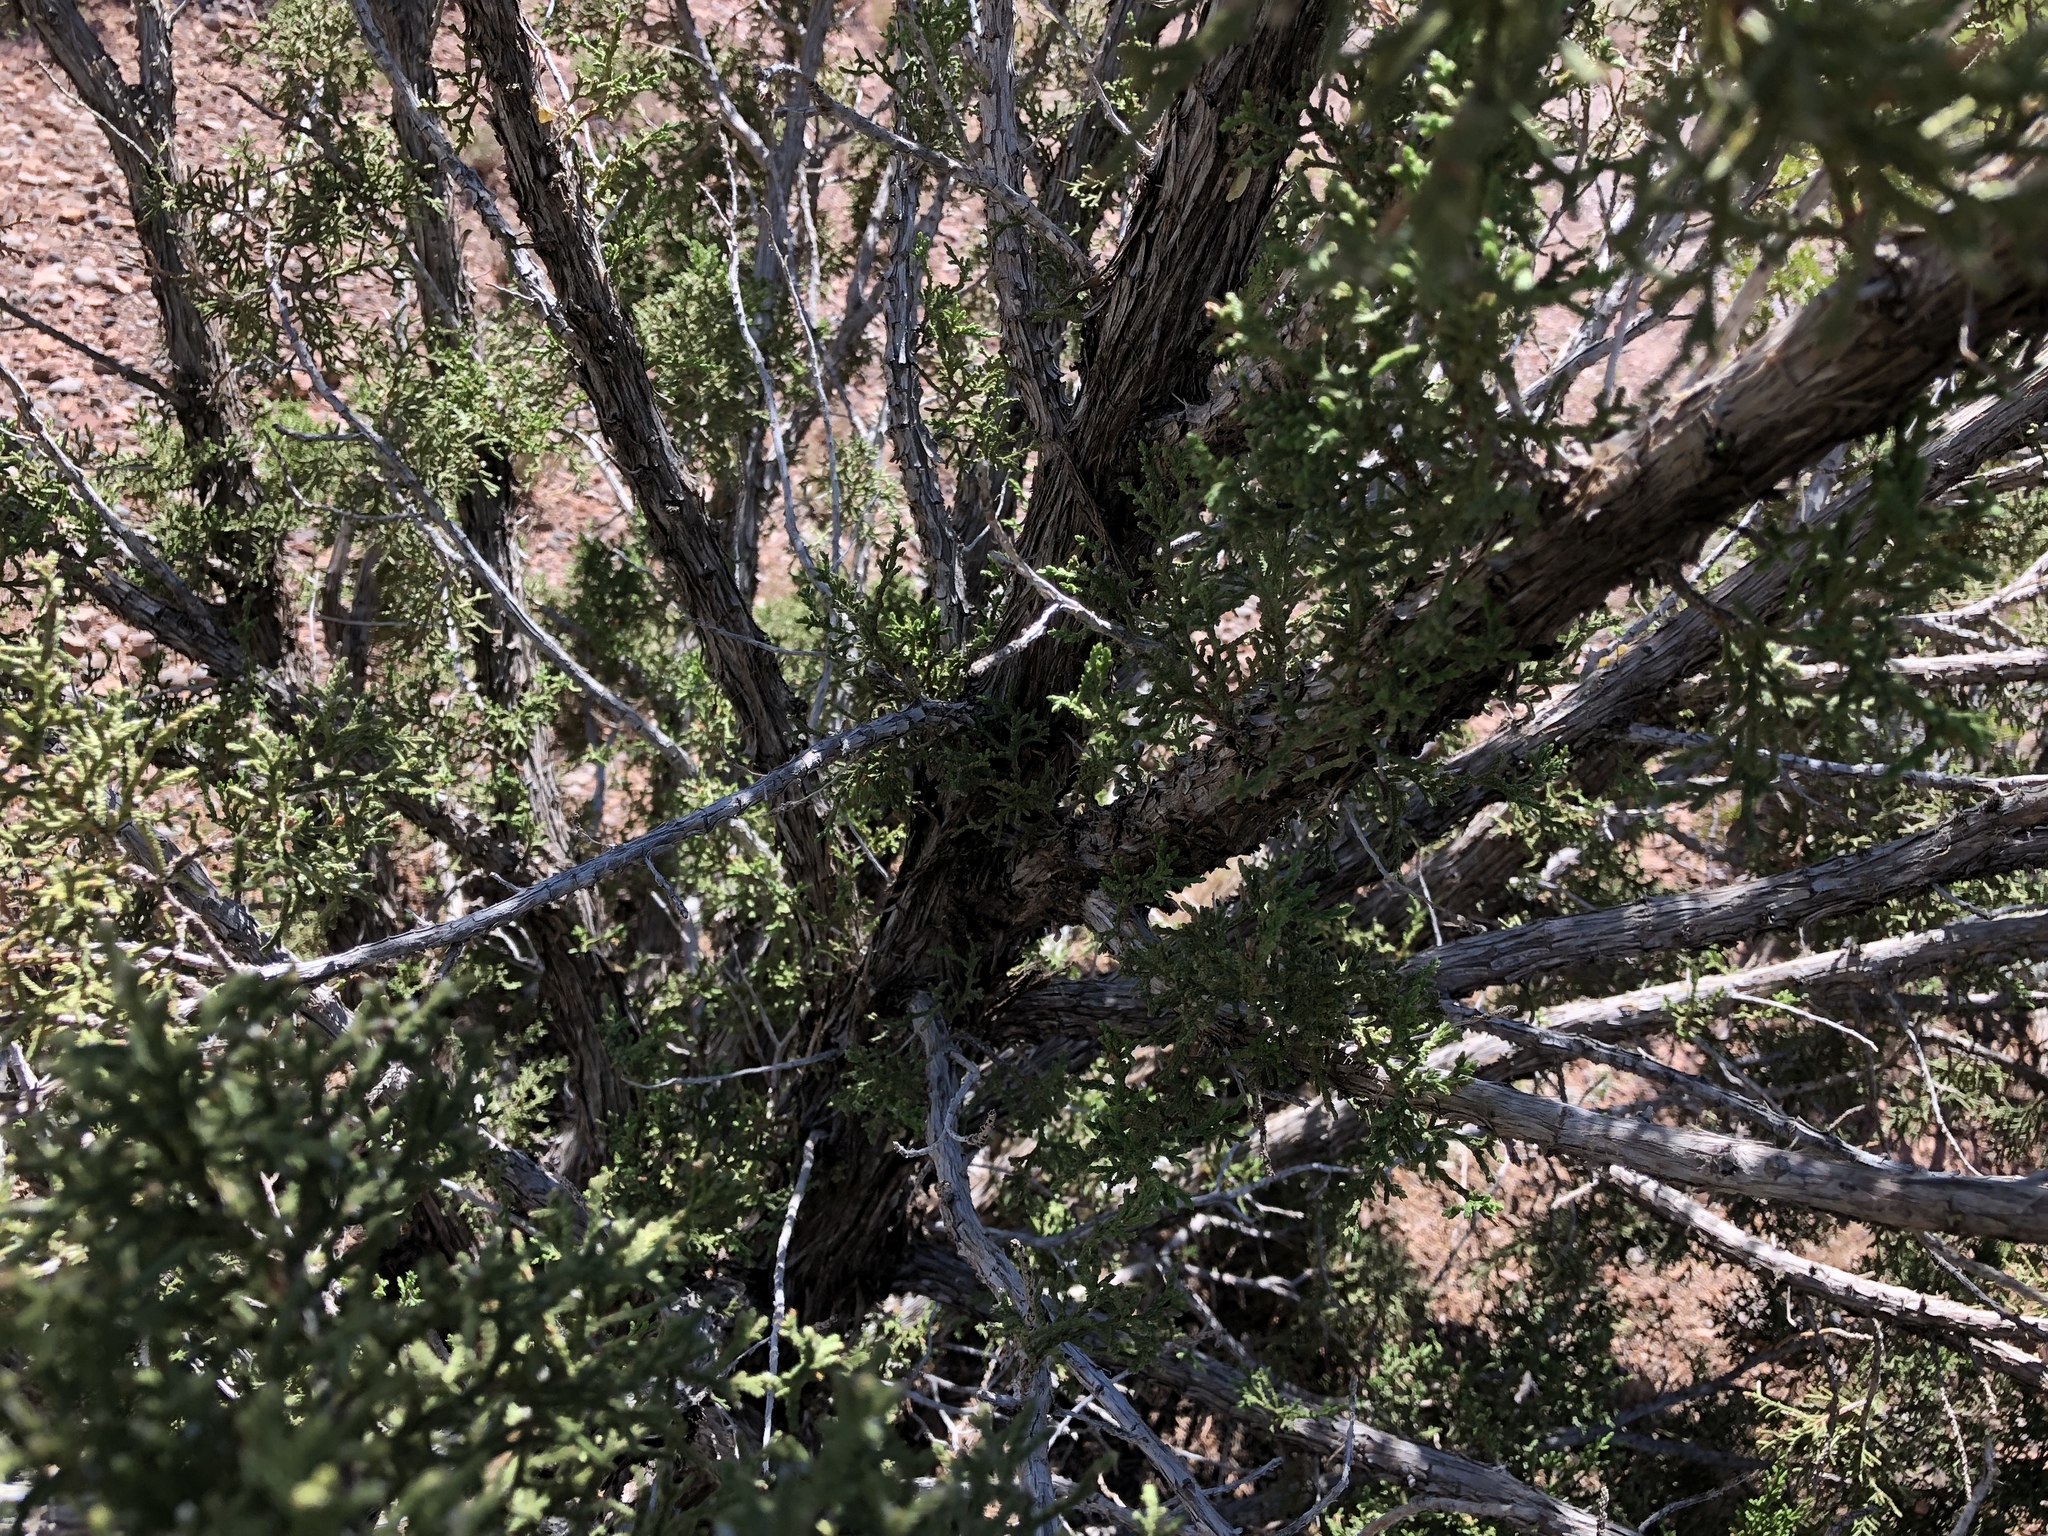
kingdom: Plantae
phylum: Tracheophyta
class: Pinopsida
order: Pinales
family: Cupressaceae
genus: Juniperus
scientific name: Juniperus monosperma
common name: One-seed juniper
